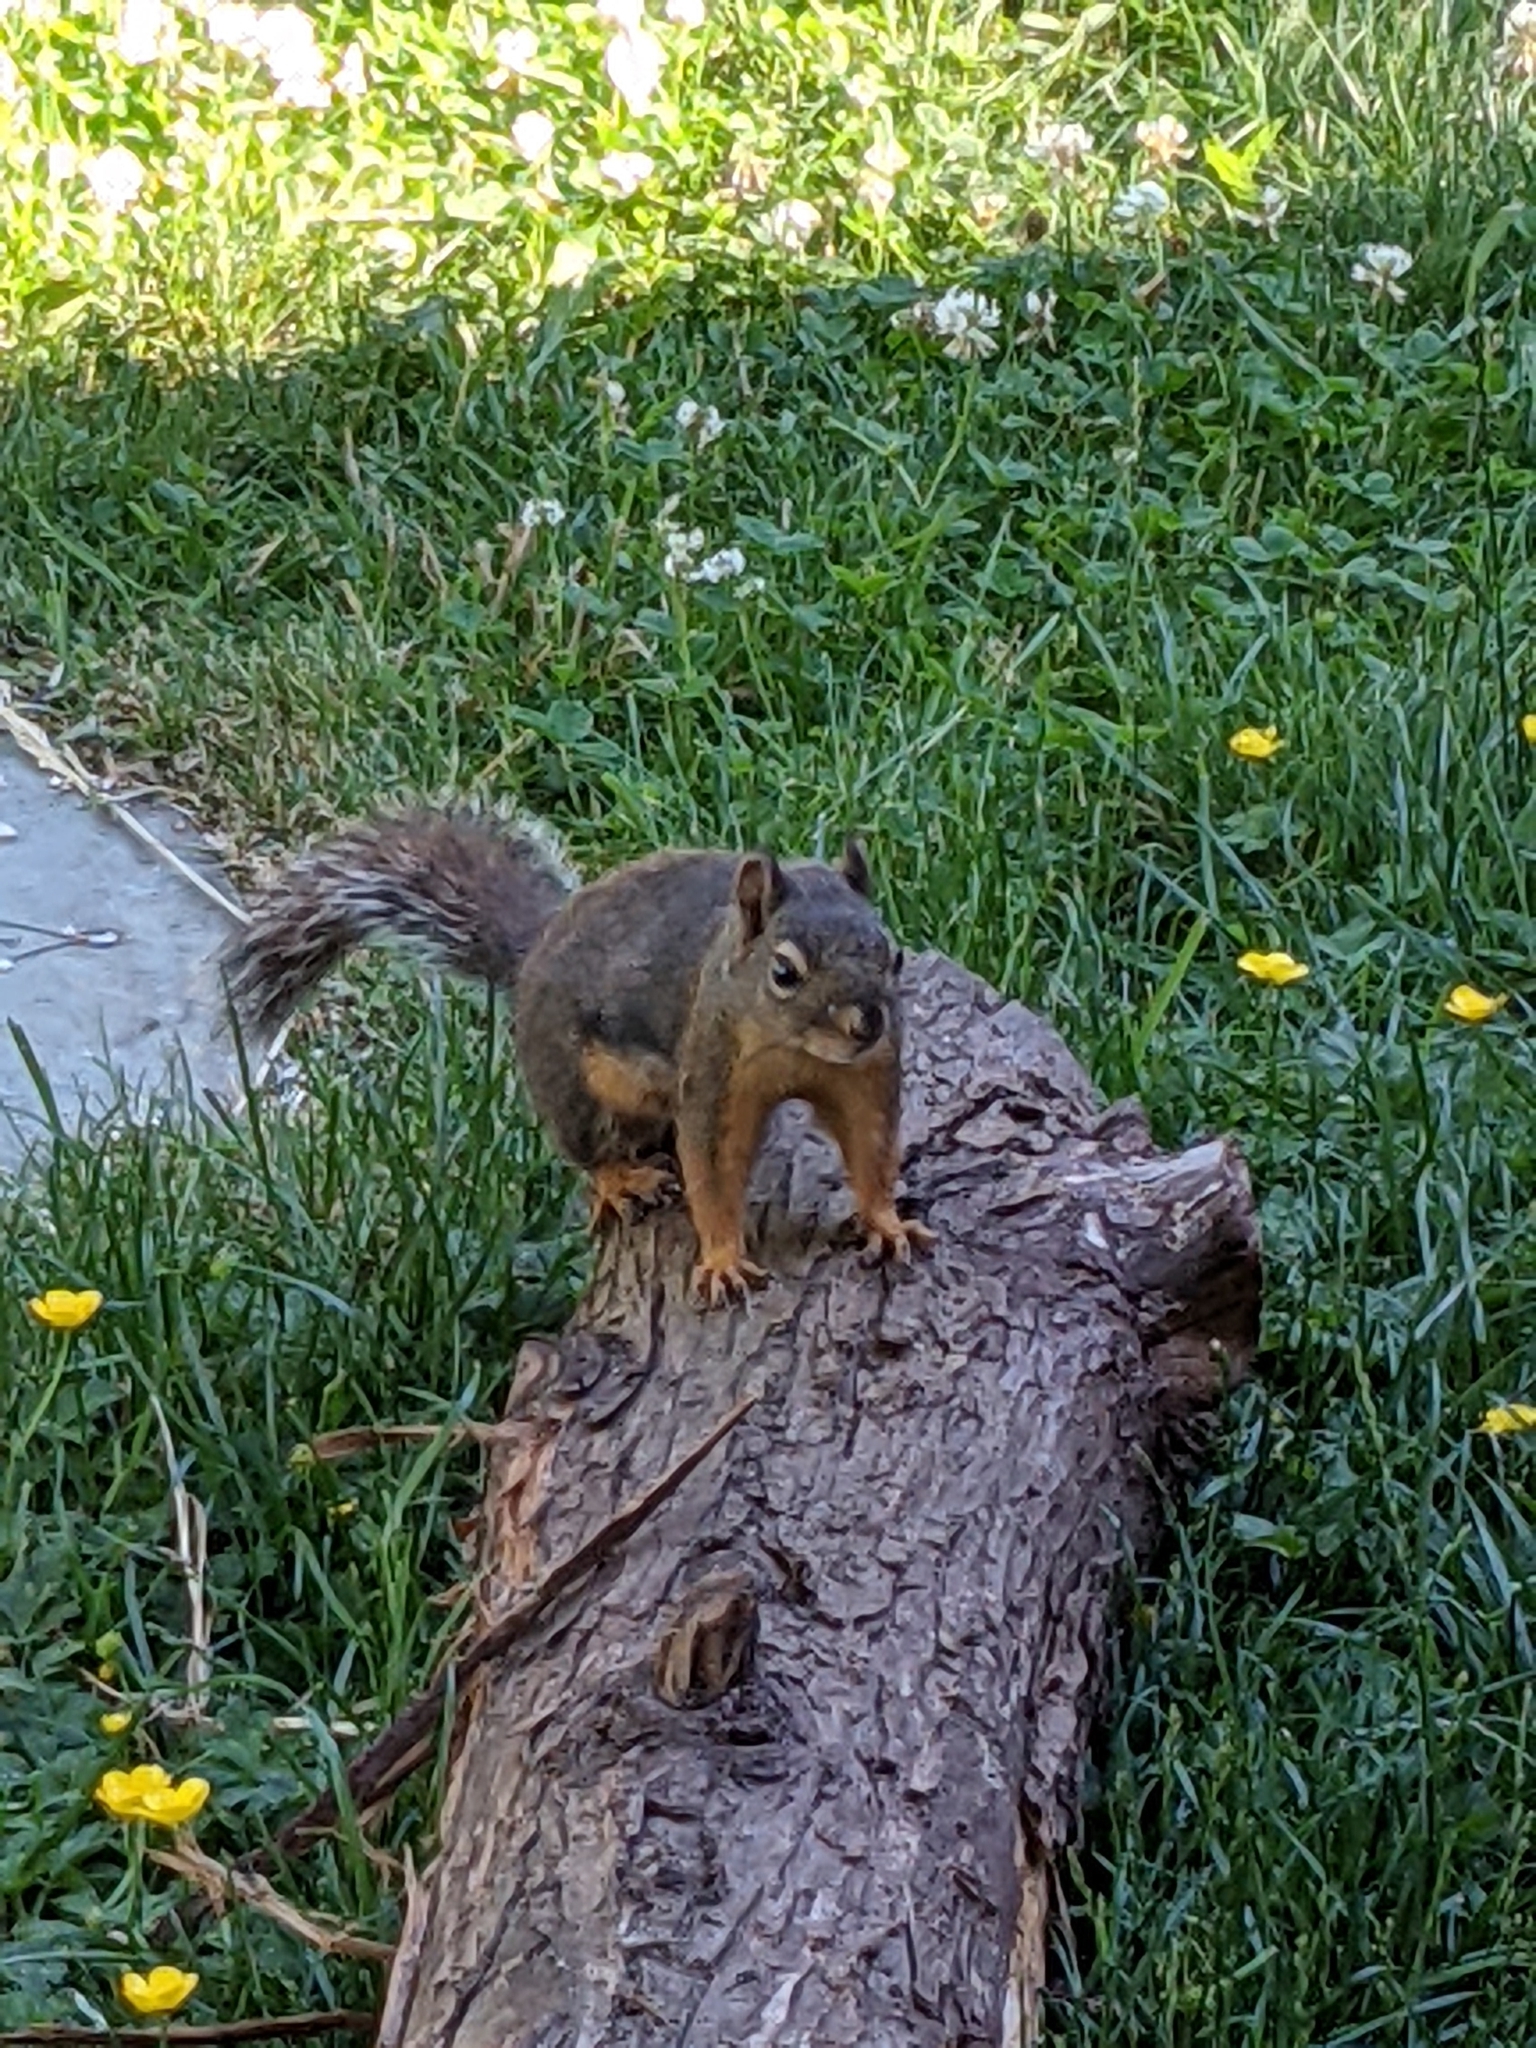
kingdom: Animalia
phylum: Chordata
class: Mammalia
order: Rodentia
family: Sciuridae
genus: Tamiasciurus
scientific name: Tamiasciurus douglasii
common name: Douglas's squirrel
